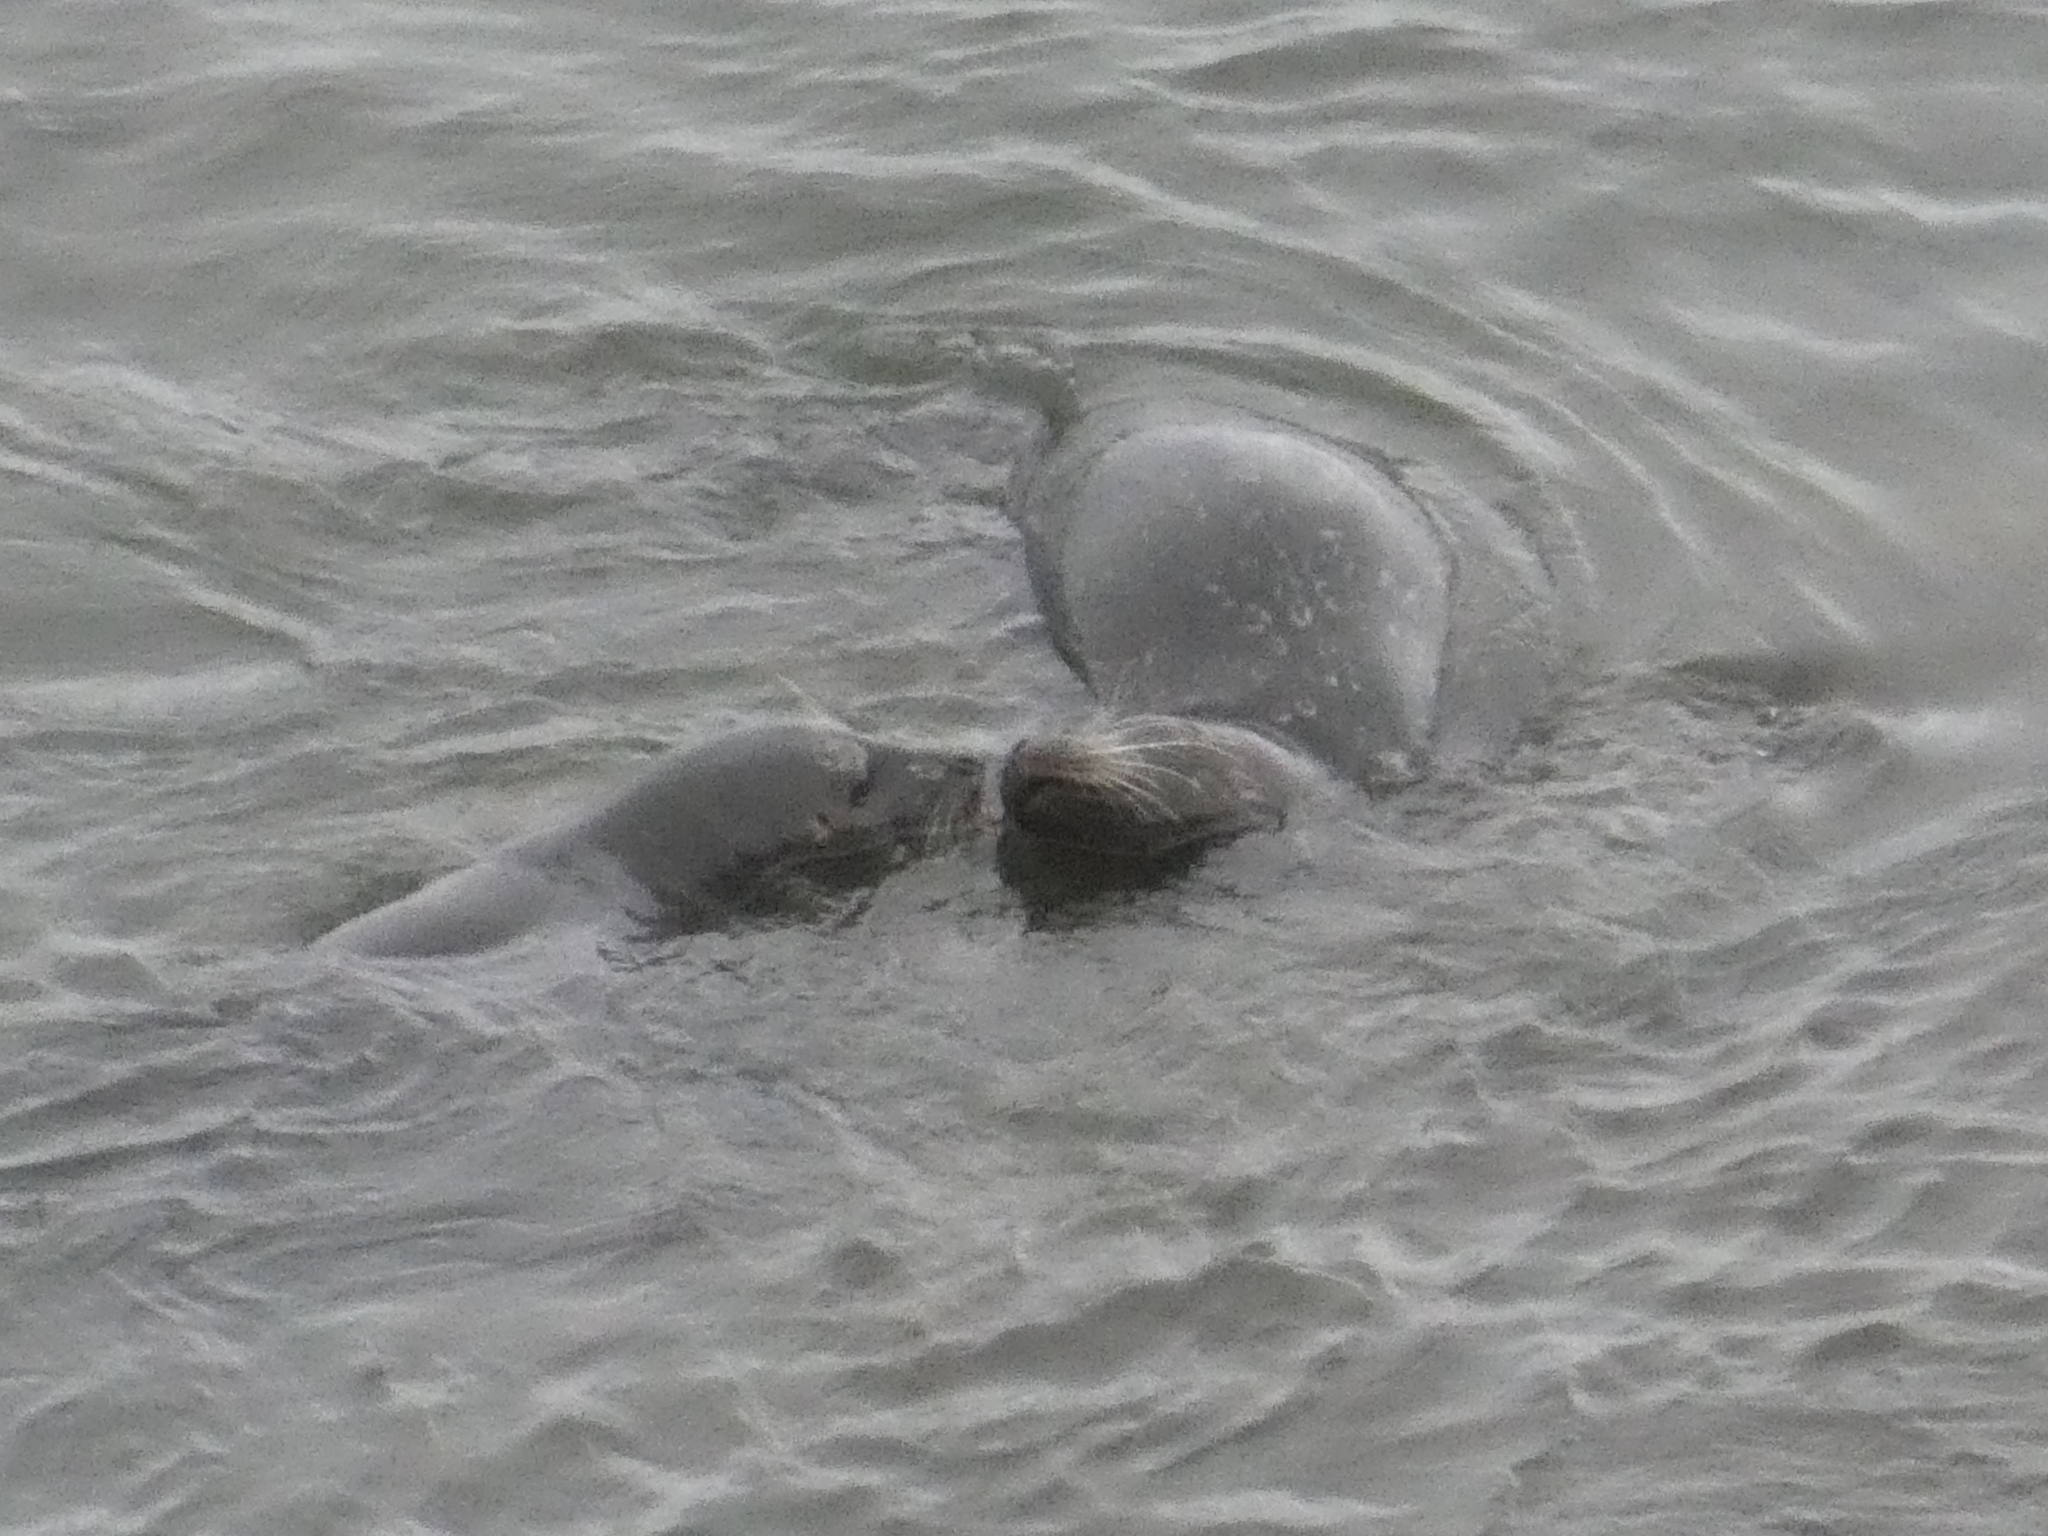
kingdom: Animalia
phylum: Chordata
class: Mammalia
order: Carnivora
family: Phocidae
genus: Phoca
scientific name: Phoca vitulina
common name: Harbor seal
